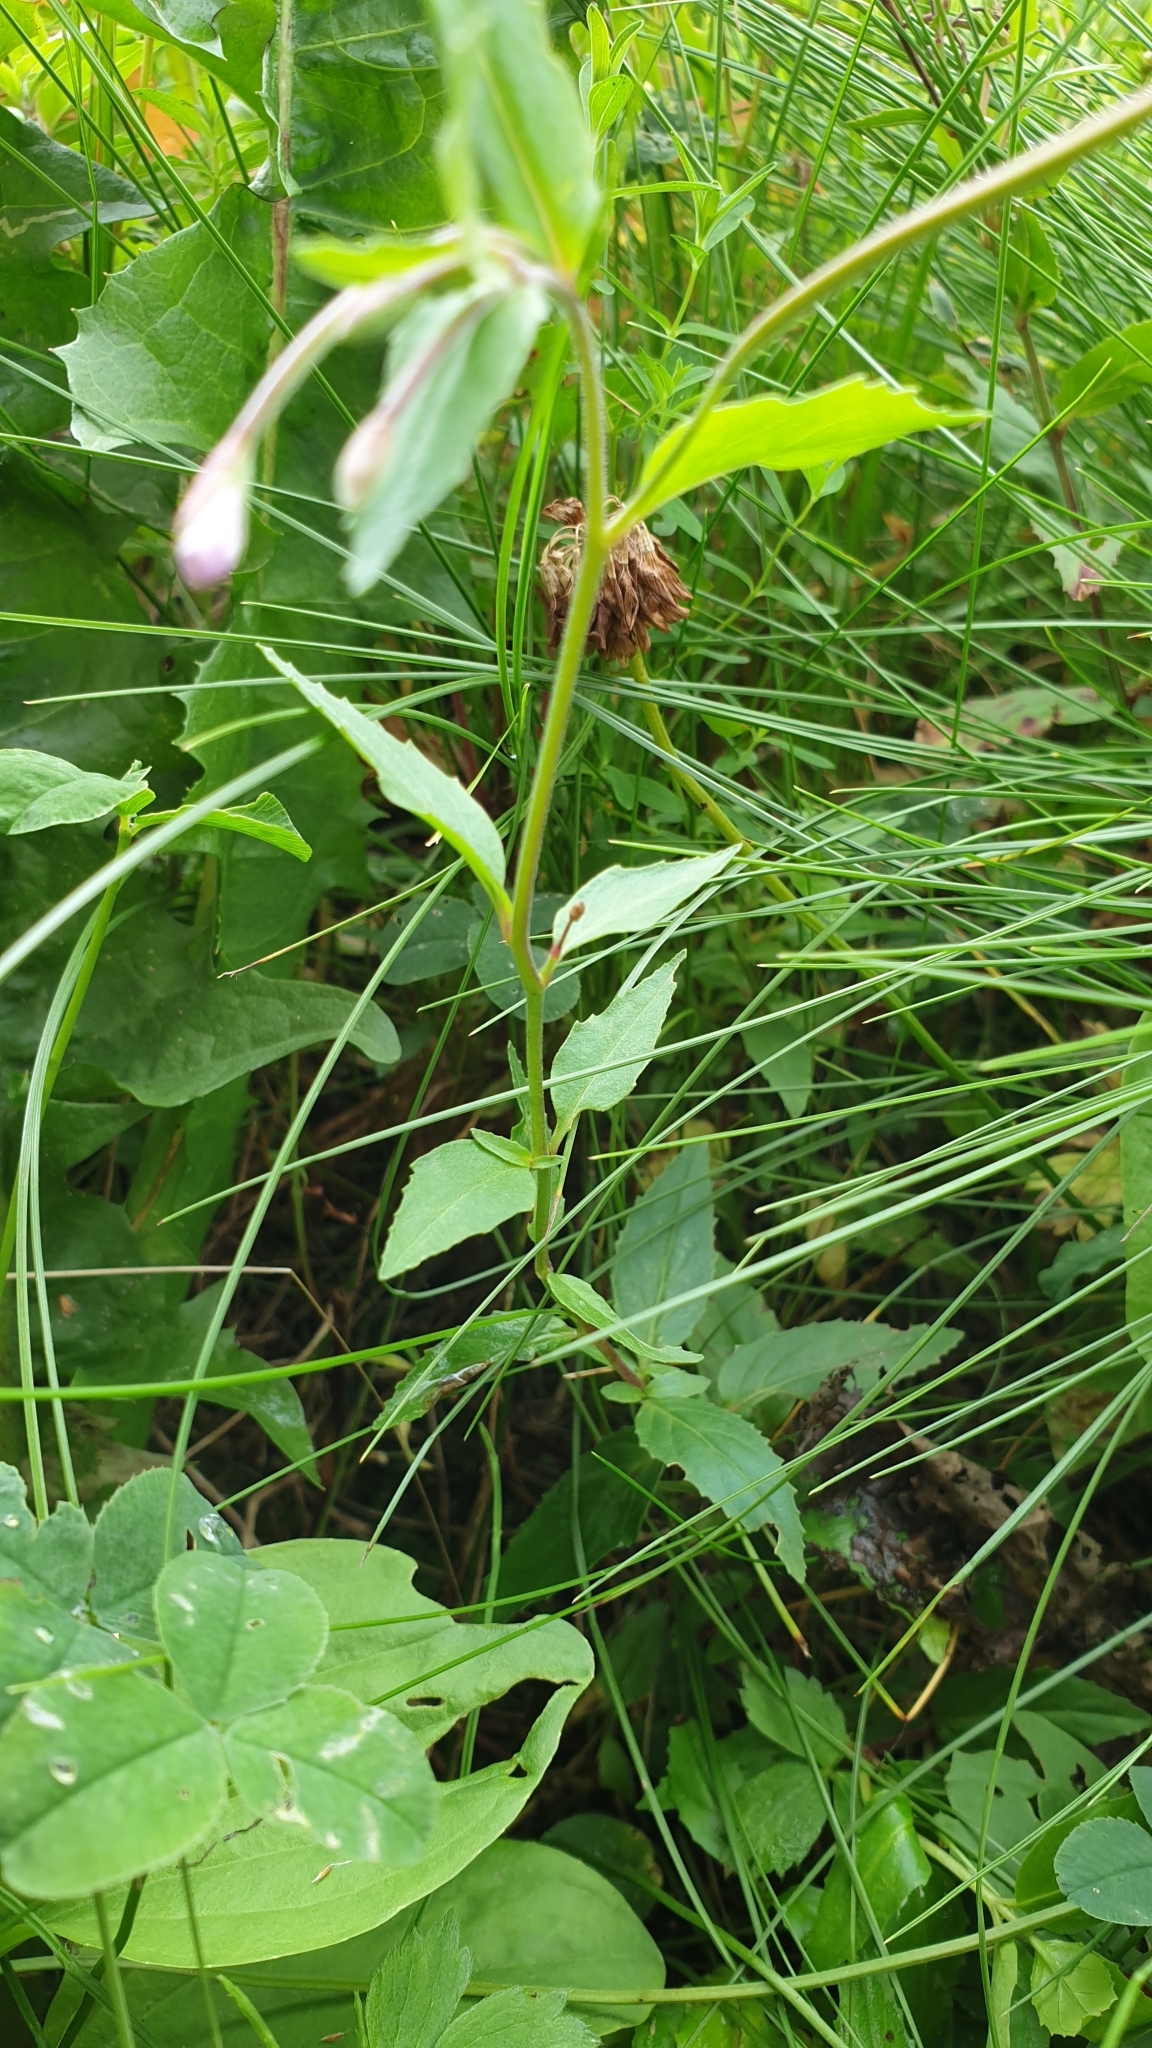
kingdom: Plantae
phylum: Tracheophyta
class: Magnoliopsida
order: Myrtales
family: Onagraceae
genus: Epilobium
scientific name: Epilobium montanum
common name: Broad-leaved willowherb
